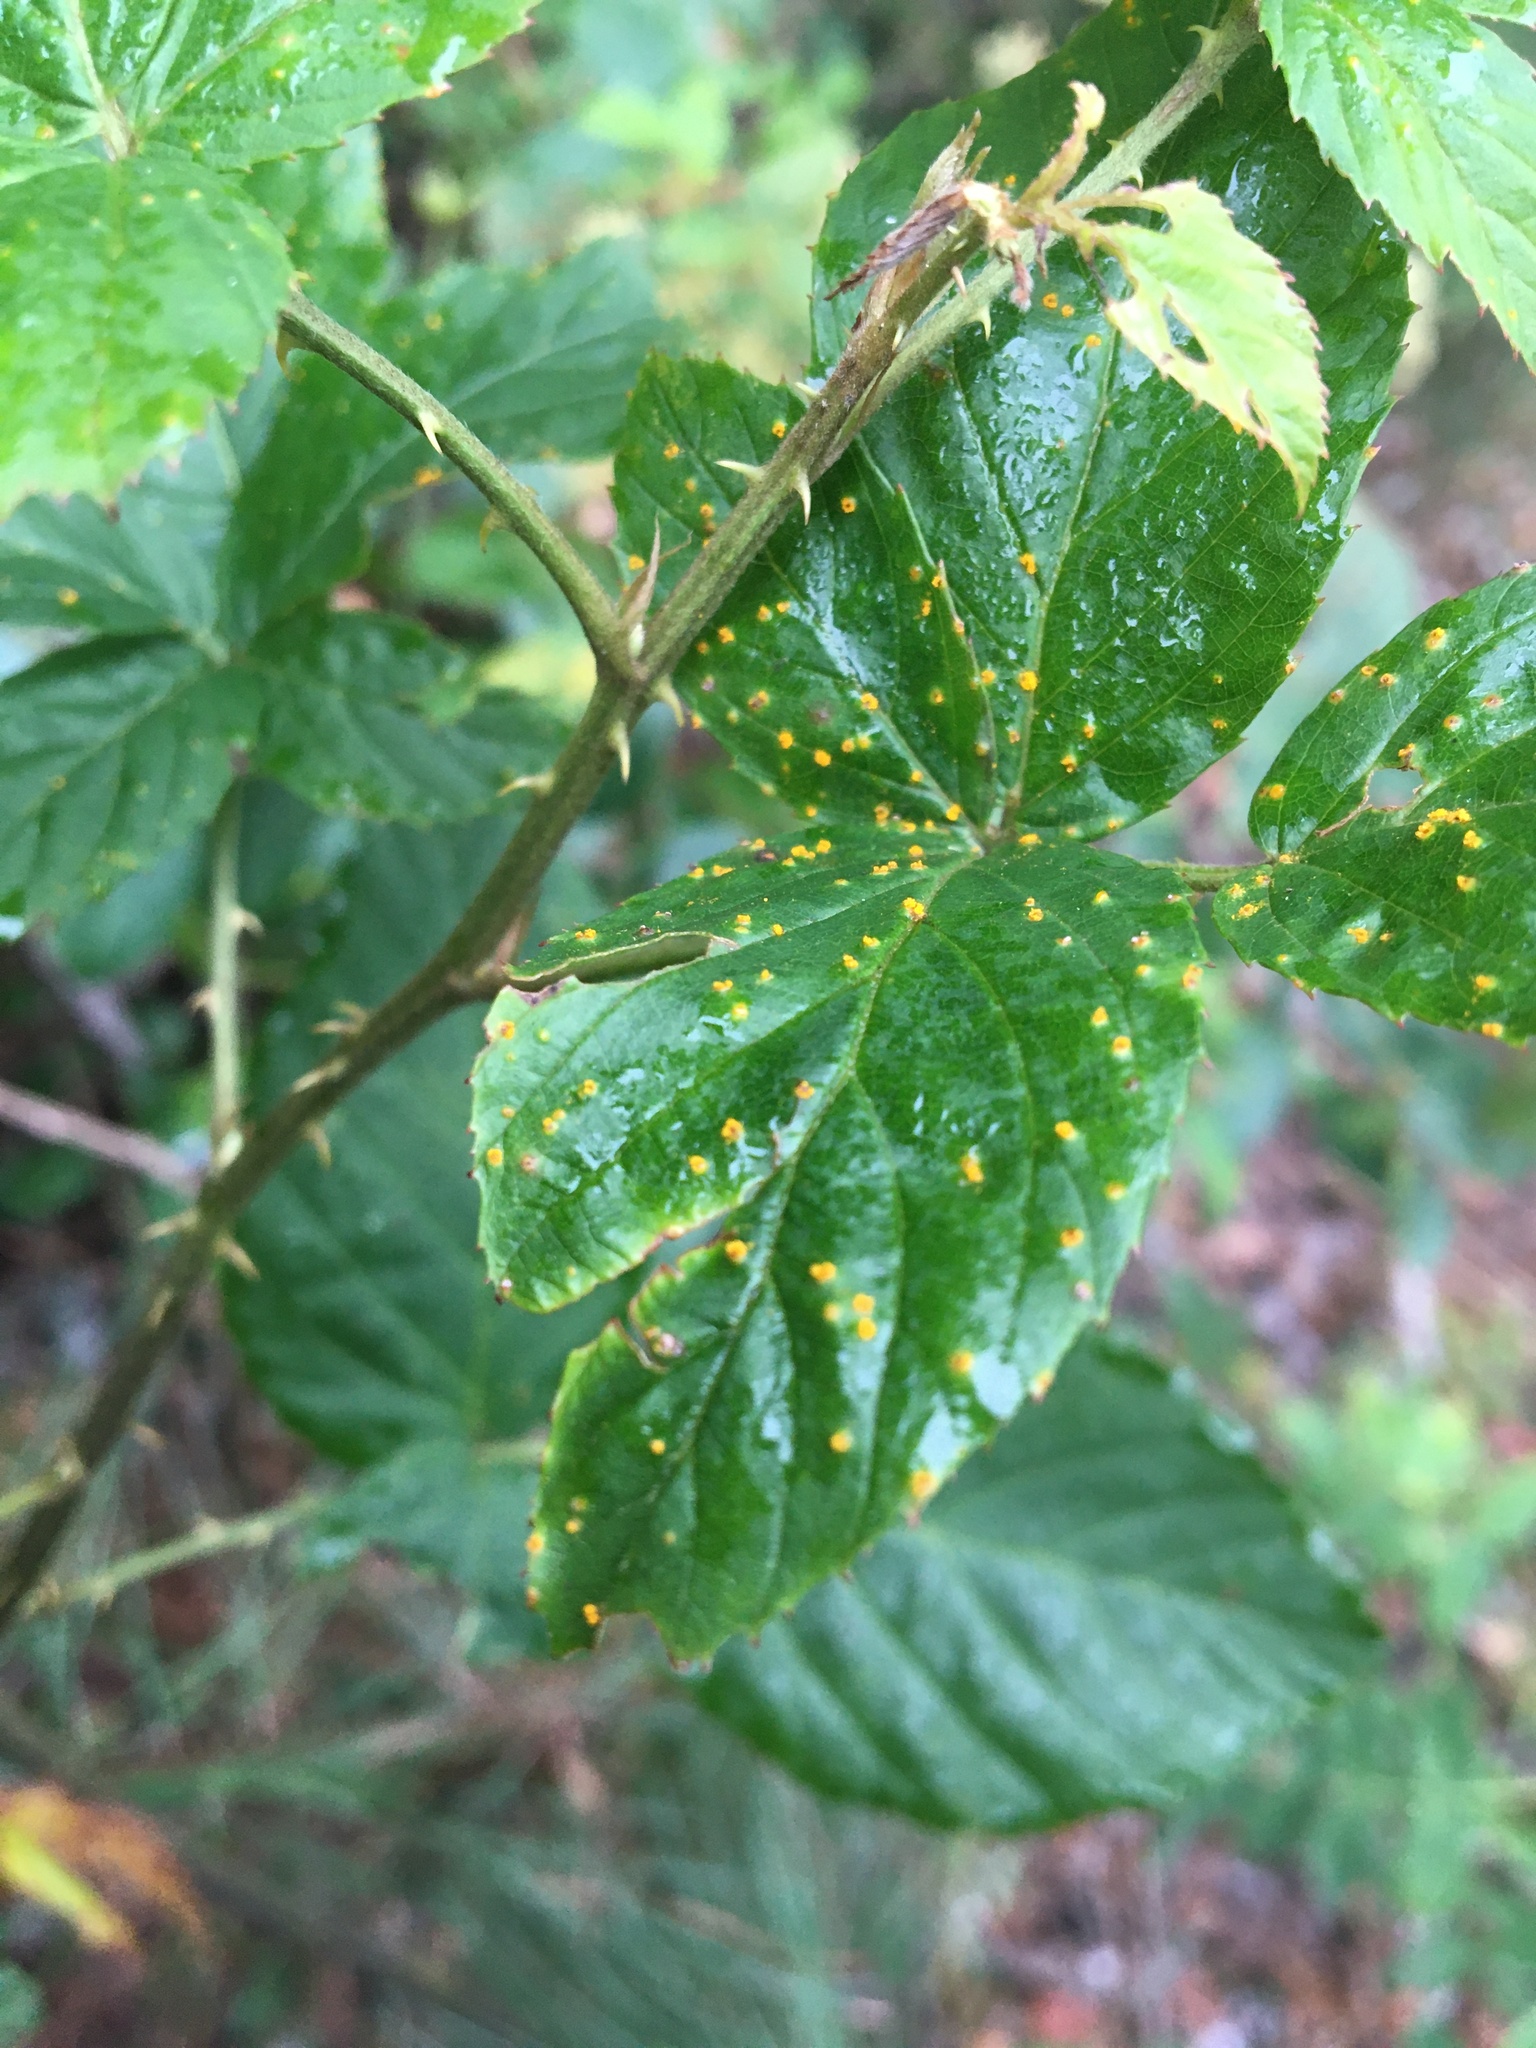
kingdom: Fungi
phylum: Basidiomycota
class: Pucciniomycetes
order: Pucciniales
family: Phragmidiaceae
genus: Kuehneola
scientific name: Kuehneola uredinis
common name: Bramble stem rust
